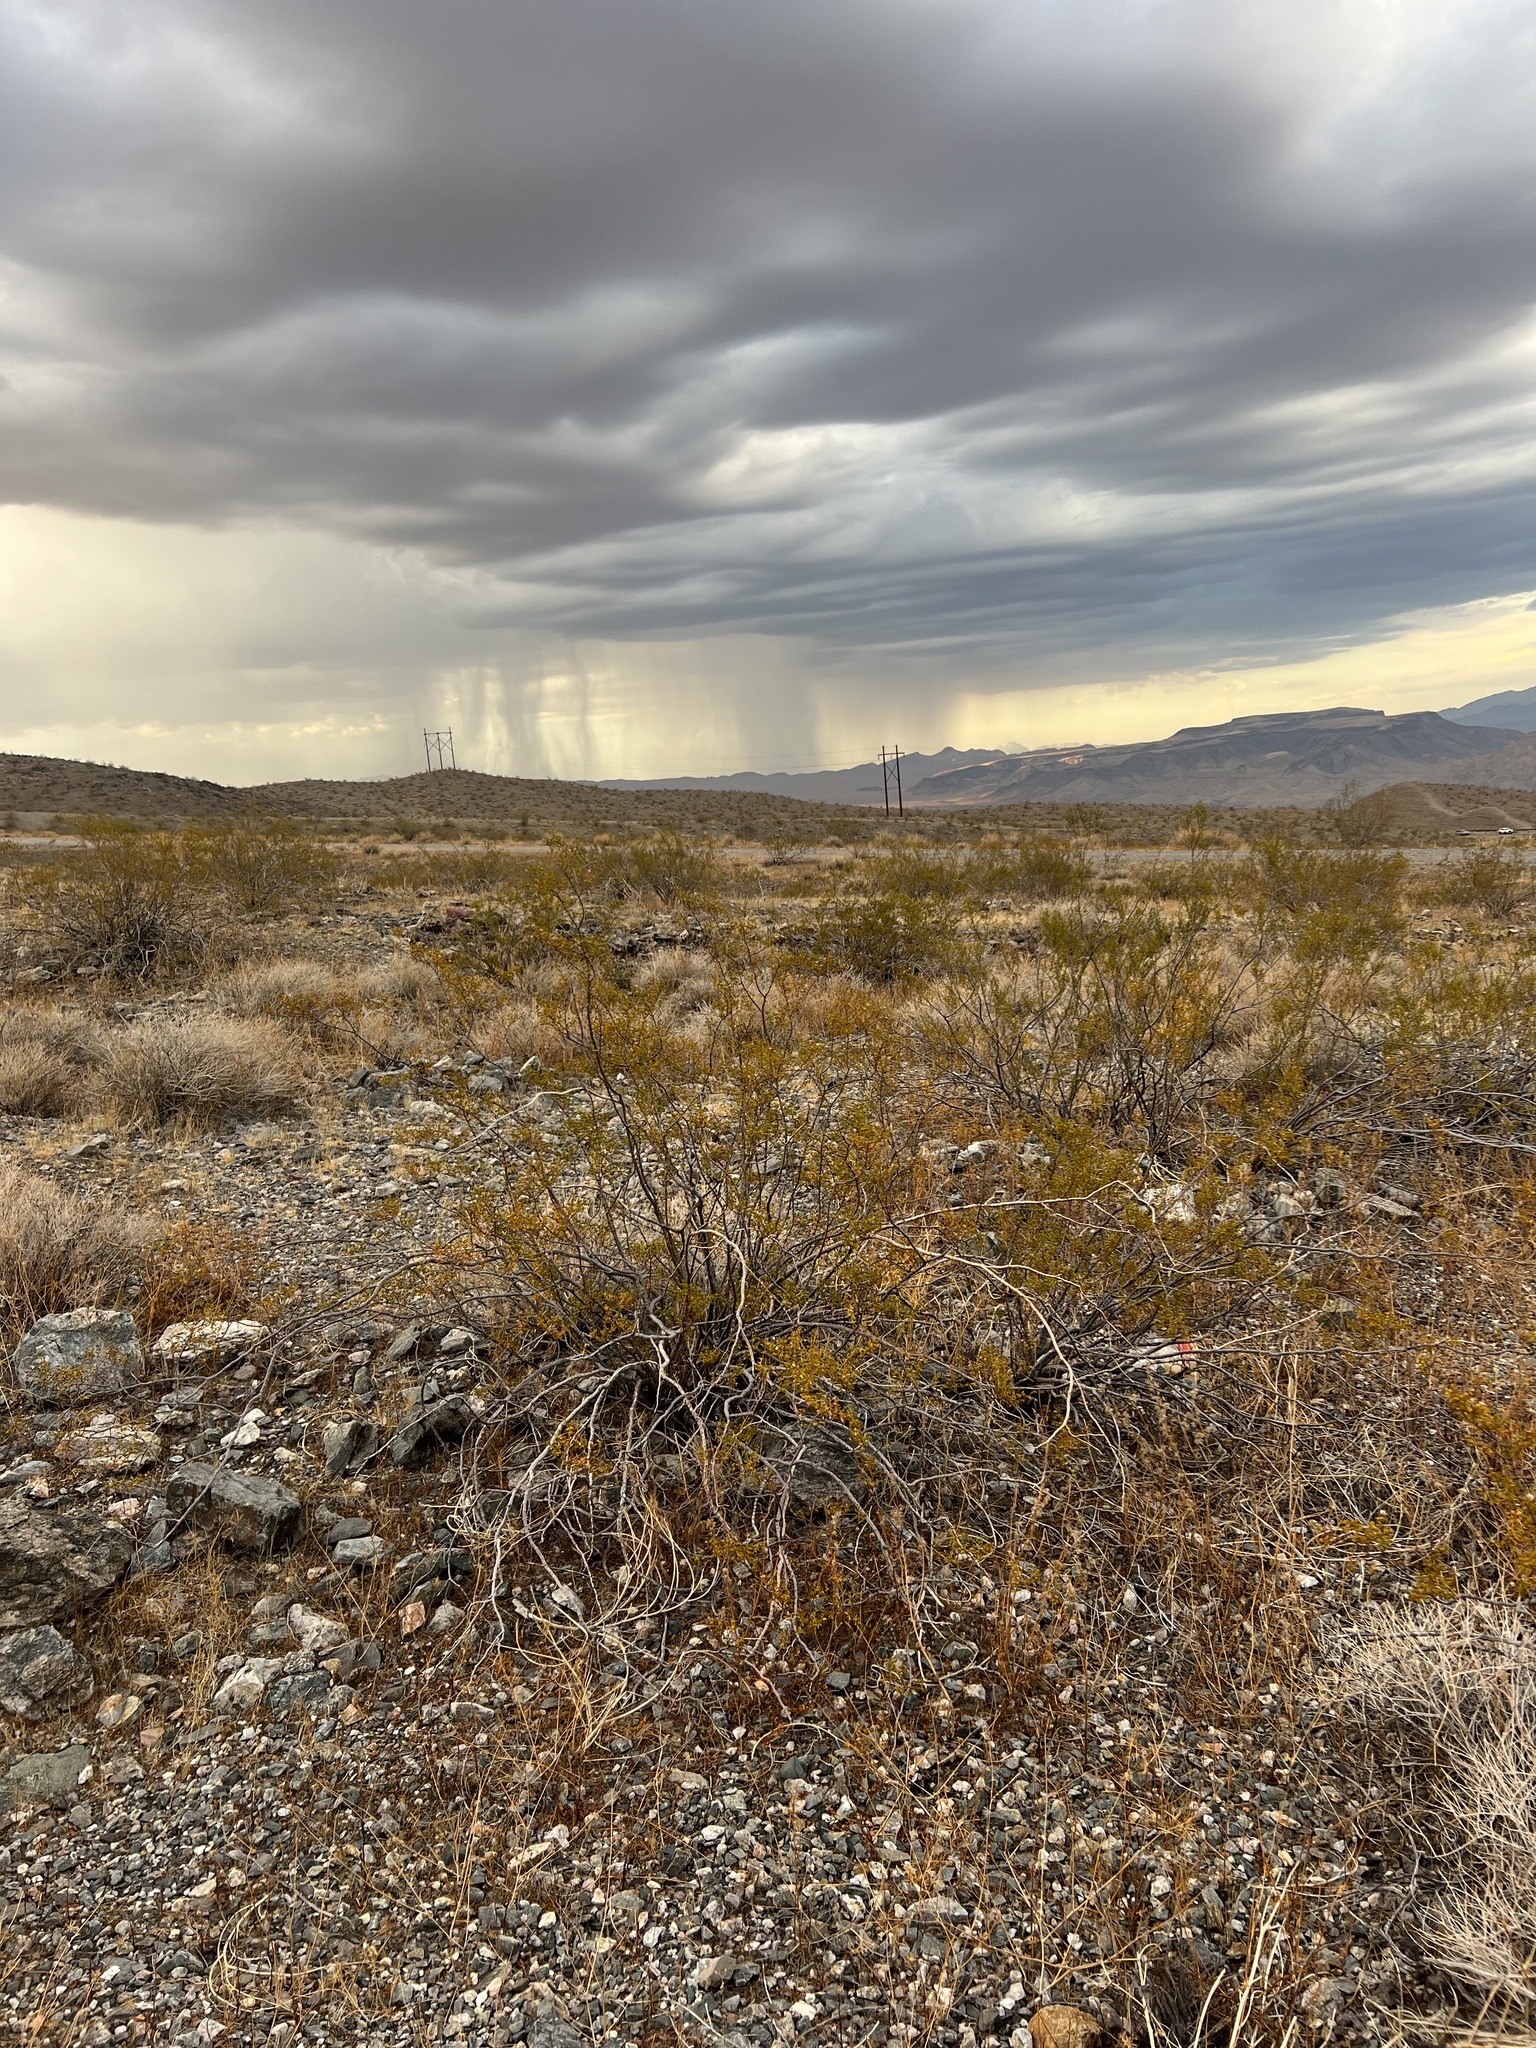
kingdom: Plantae
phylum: Tracheophyta
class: Magnoliopsida
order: Zygophyllales
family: Zygophyllaceae
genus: Larrea
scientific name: Larrea tridentata
